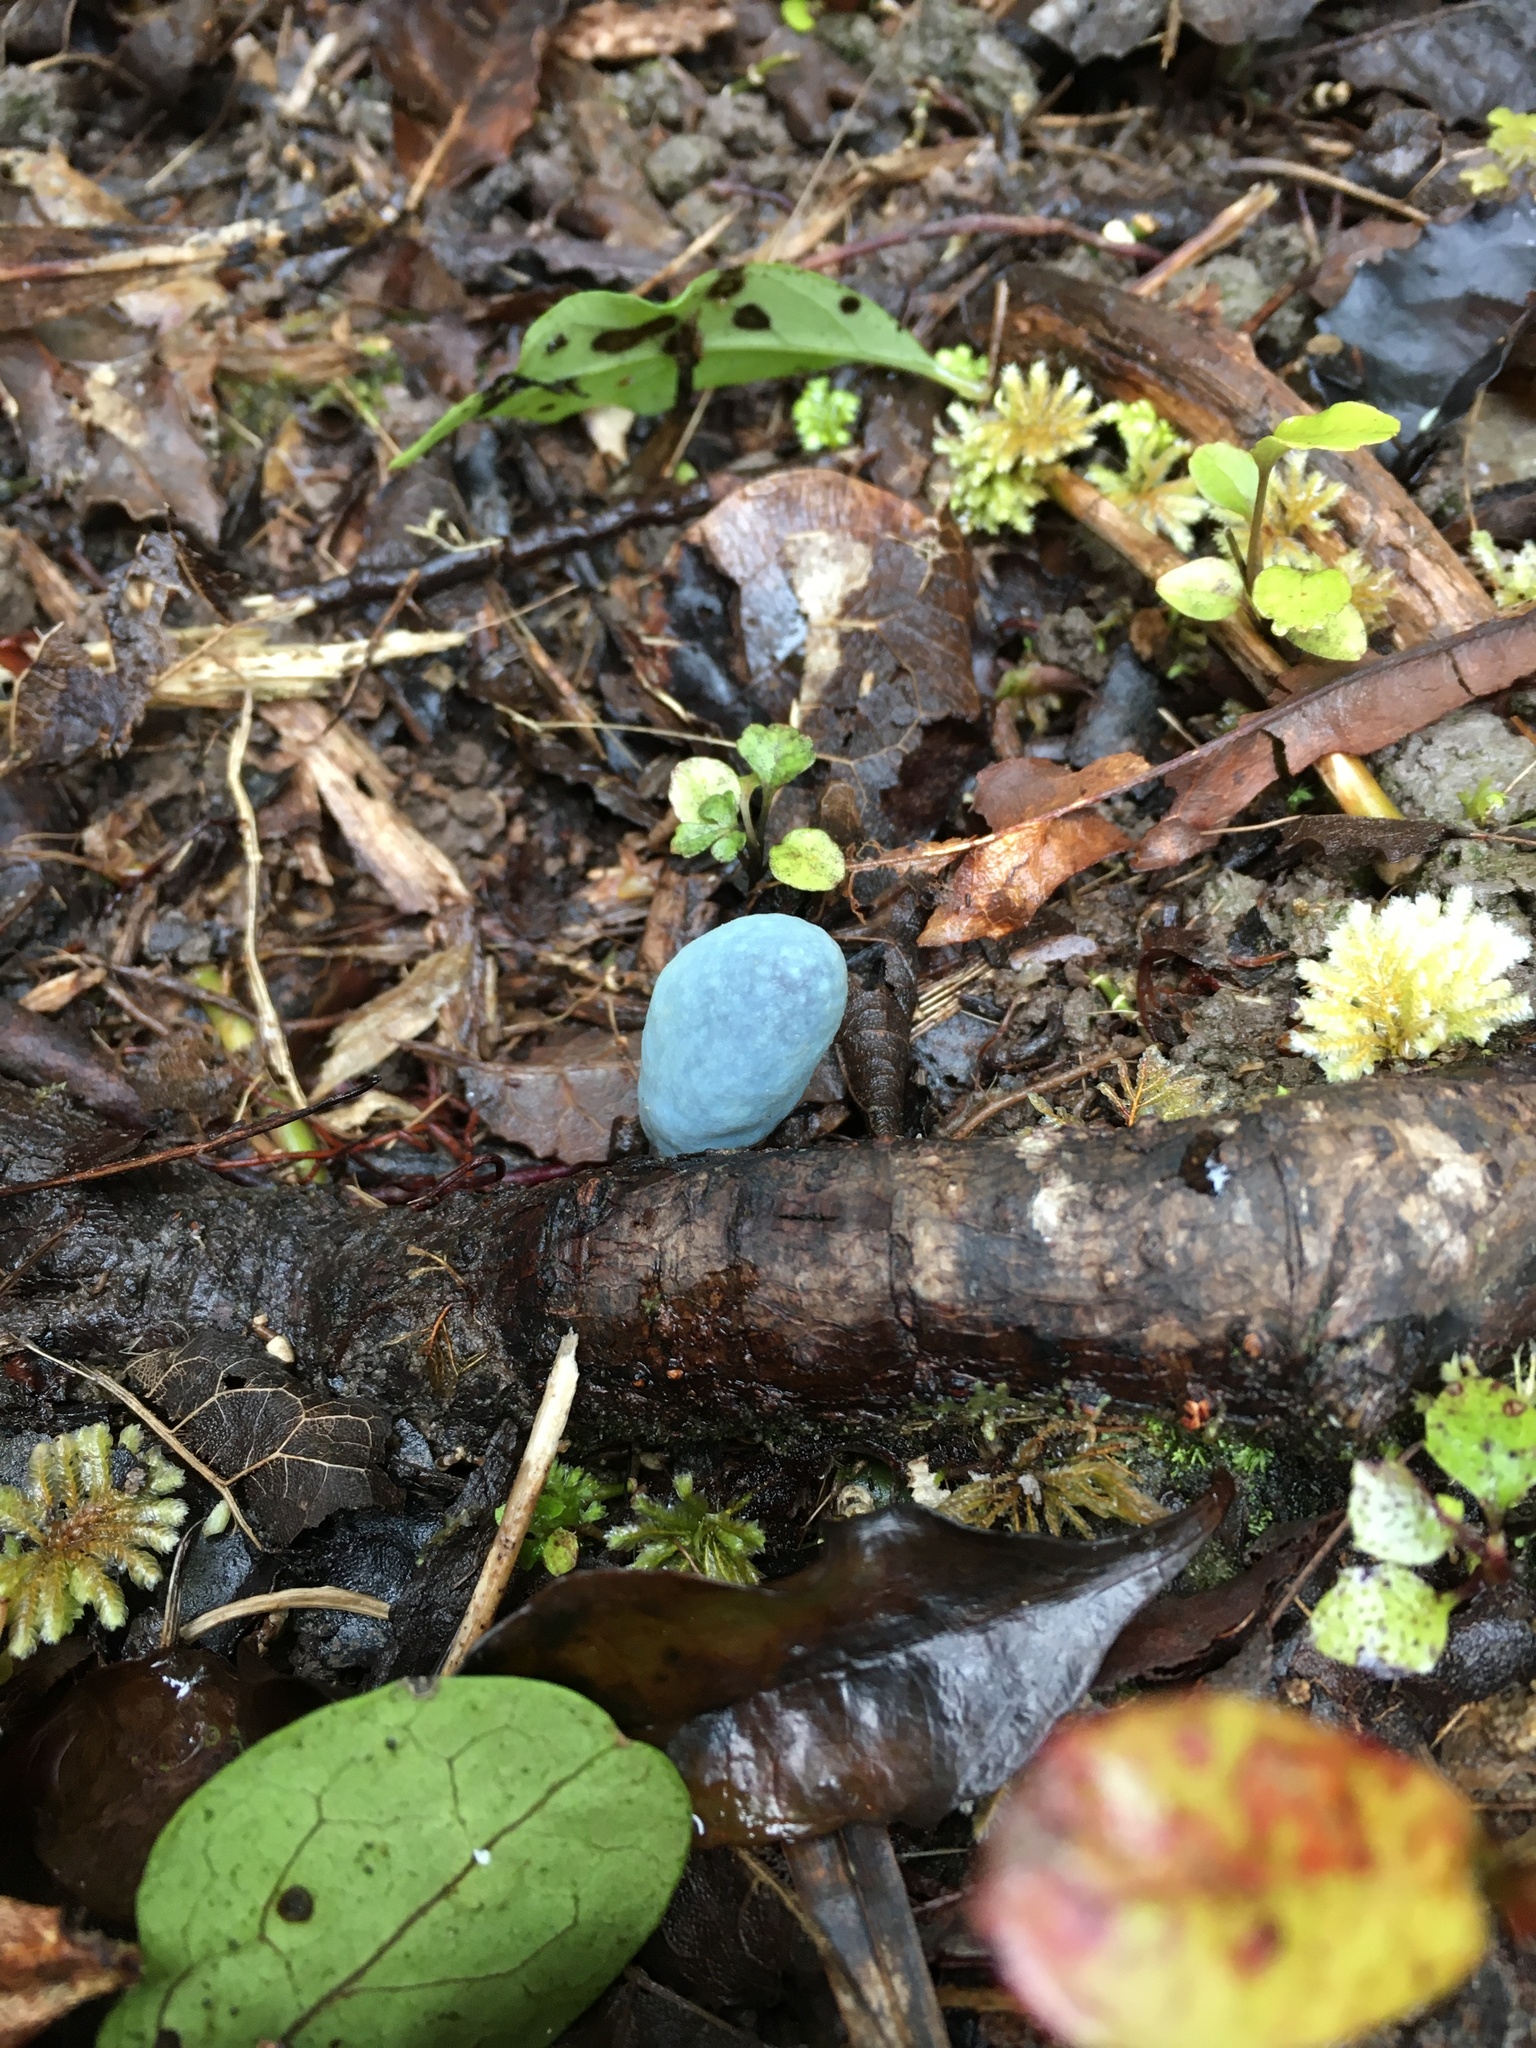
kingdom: Fungi
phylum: Basidiomycota
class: Agaricomycetes
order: Agaricales
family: Agaricaceae
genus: Clavogaster
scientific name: Clavogaster virescens
